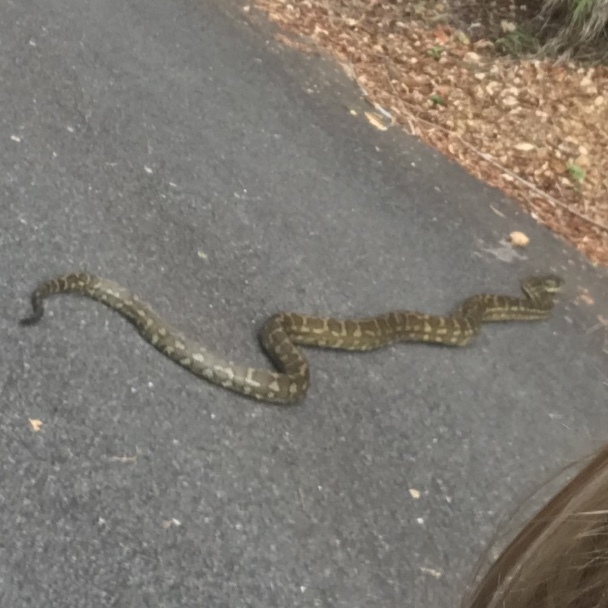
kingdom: Animalia
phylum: Chordata
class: Squamata
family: Pythonidae
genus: Morelia
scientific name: Morelia spilota
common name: Carpet python
